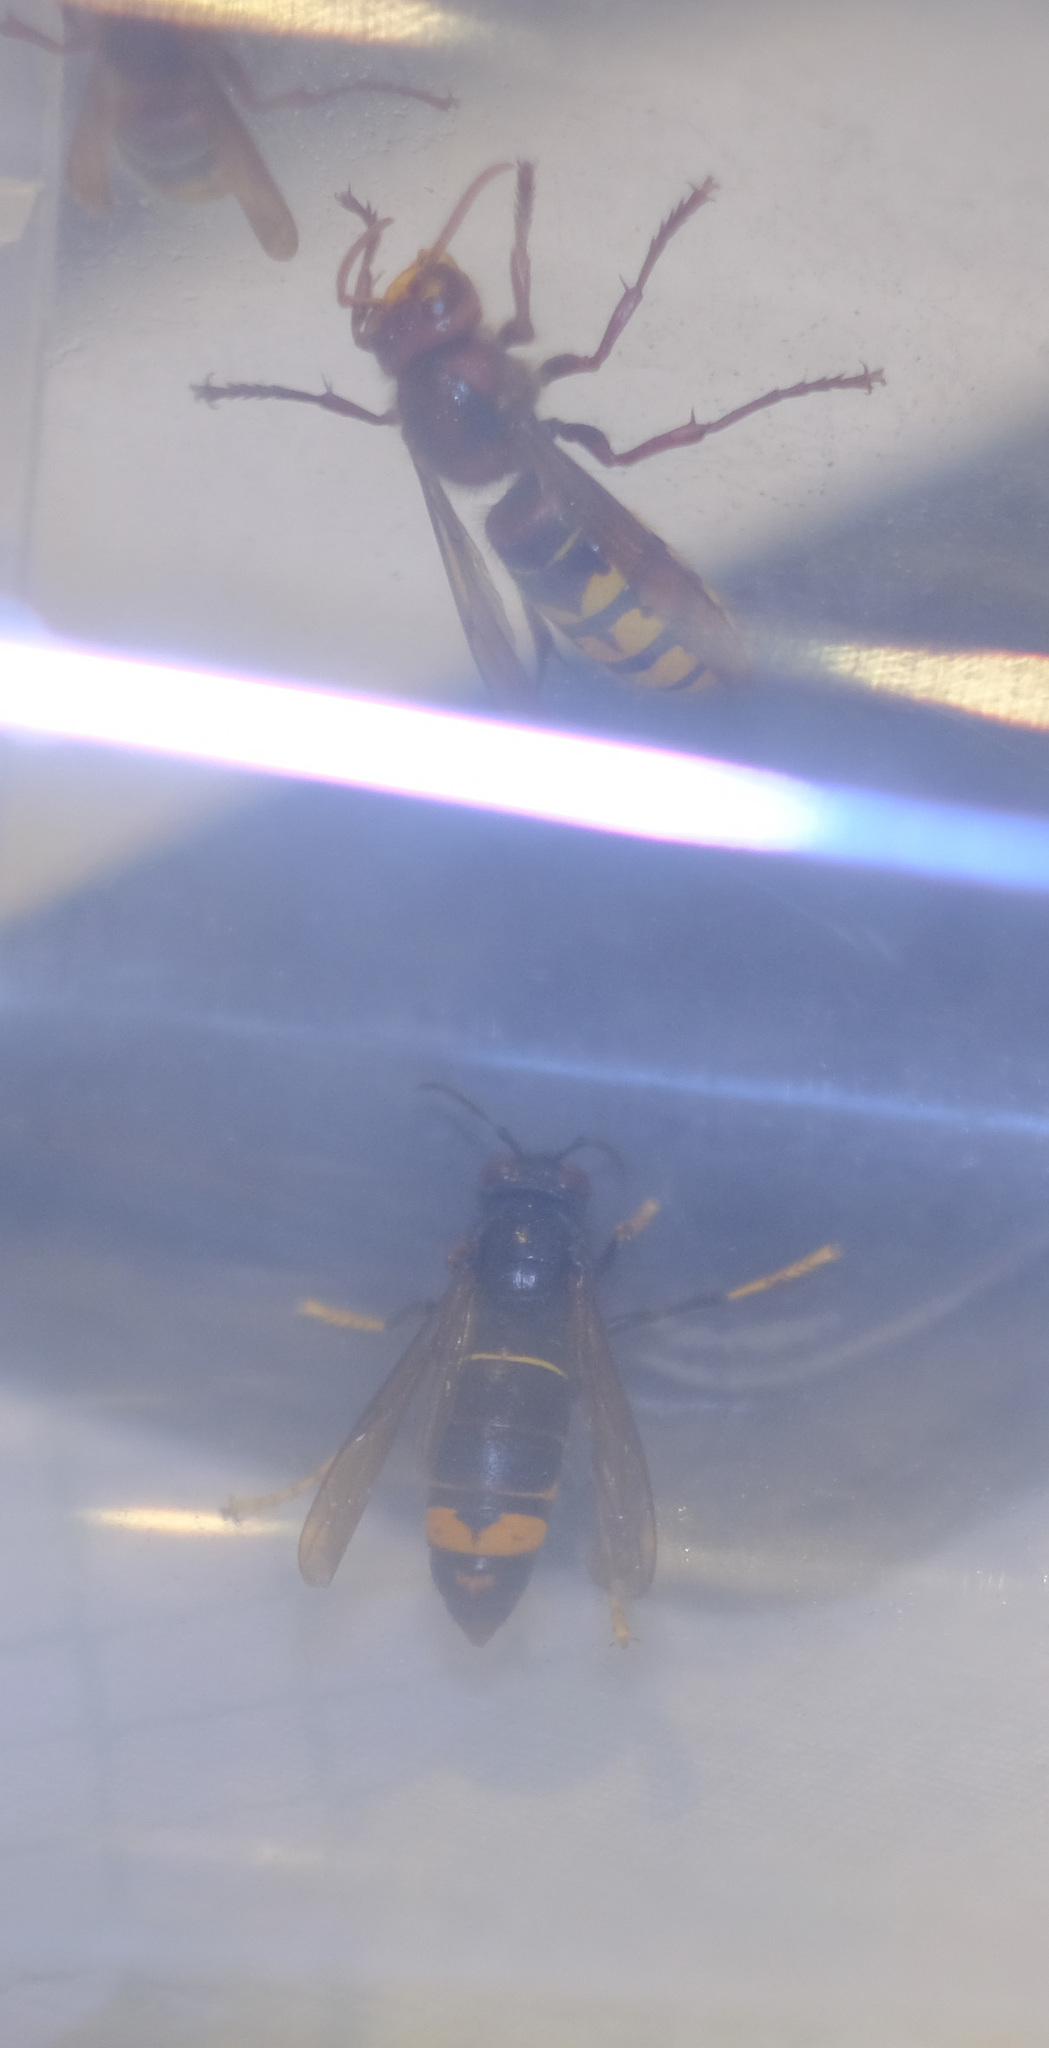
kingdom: Animalia
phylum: Arthropoda
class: Insecta
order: Hymenoptera
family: Vespidae
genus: Vespa
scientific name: Vespa velutina
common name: Asian hornet
